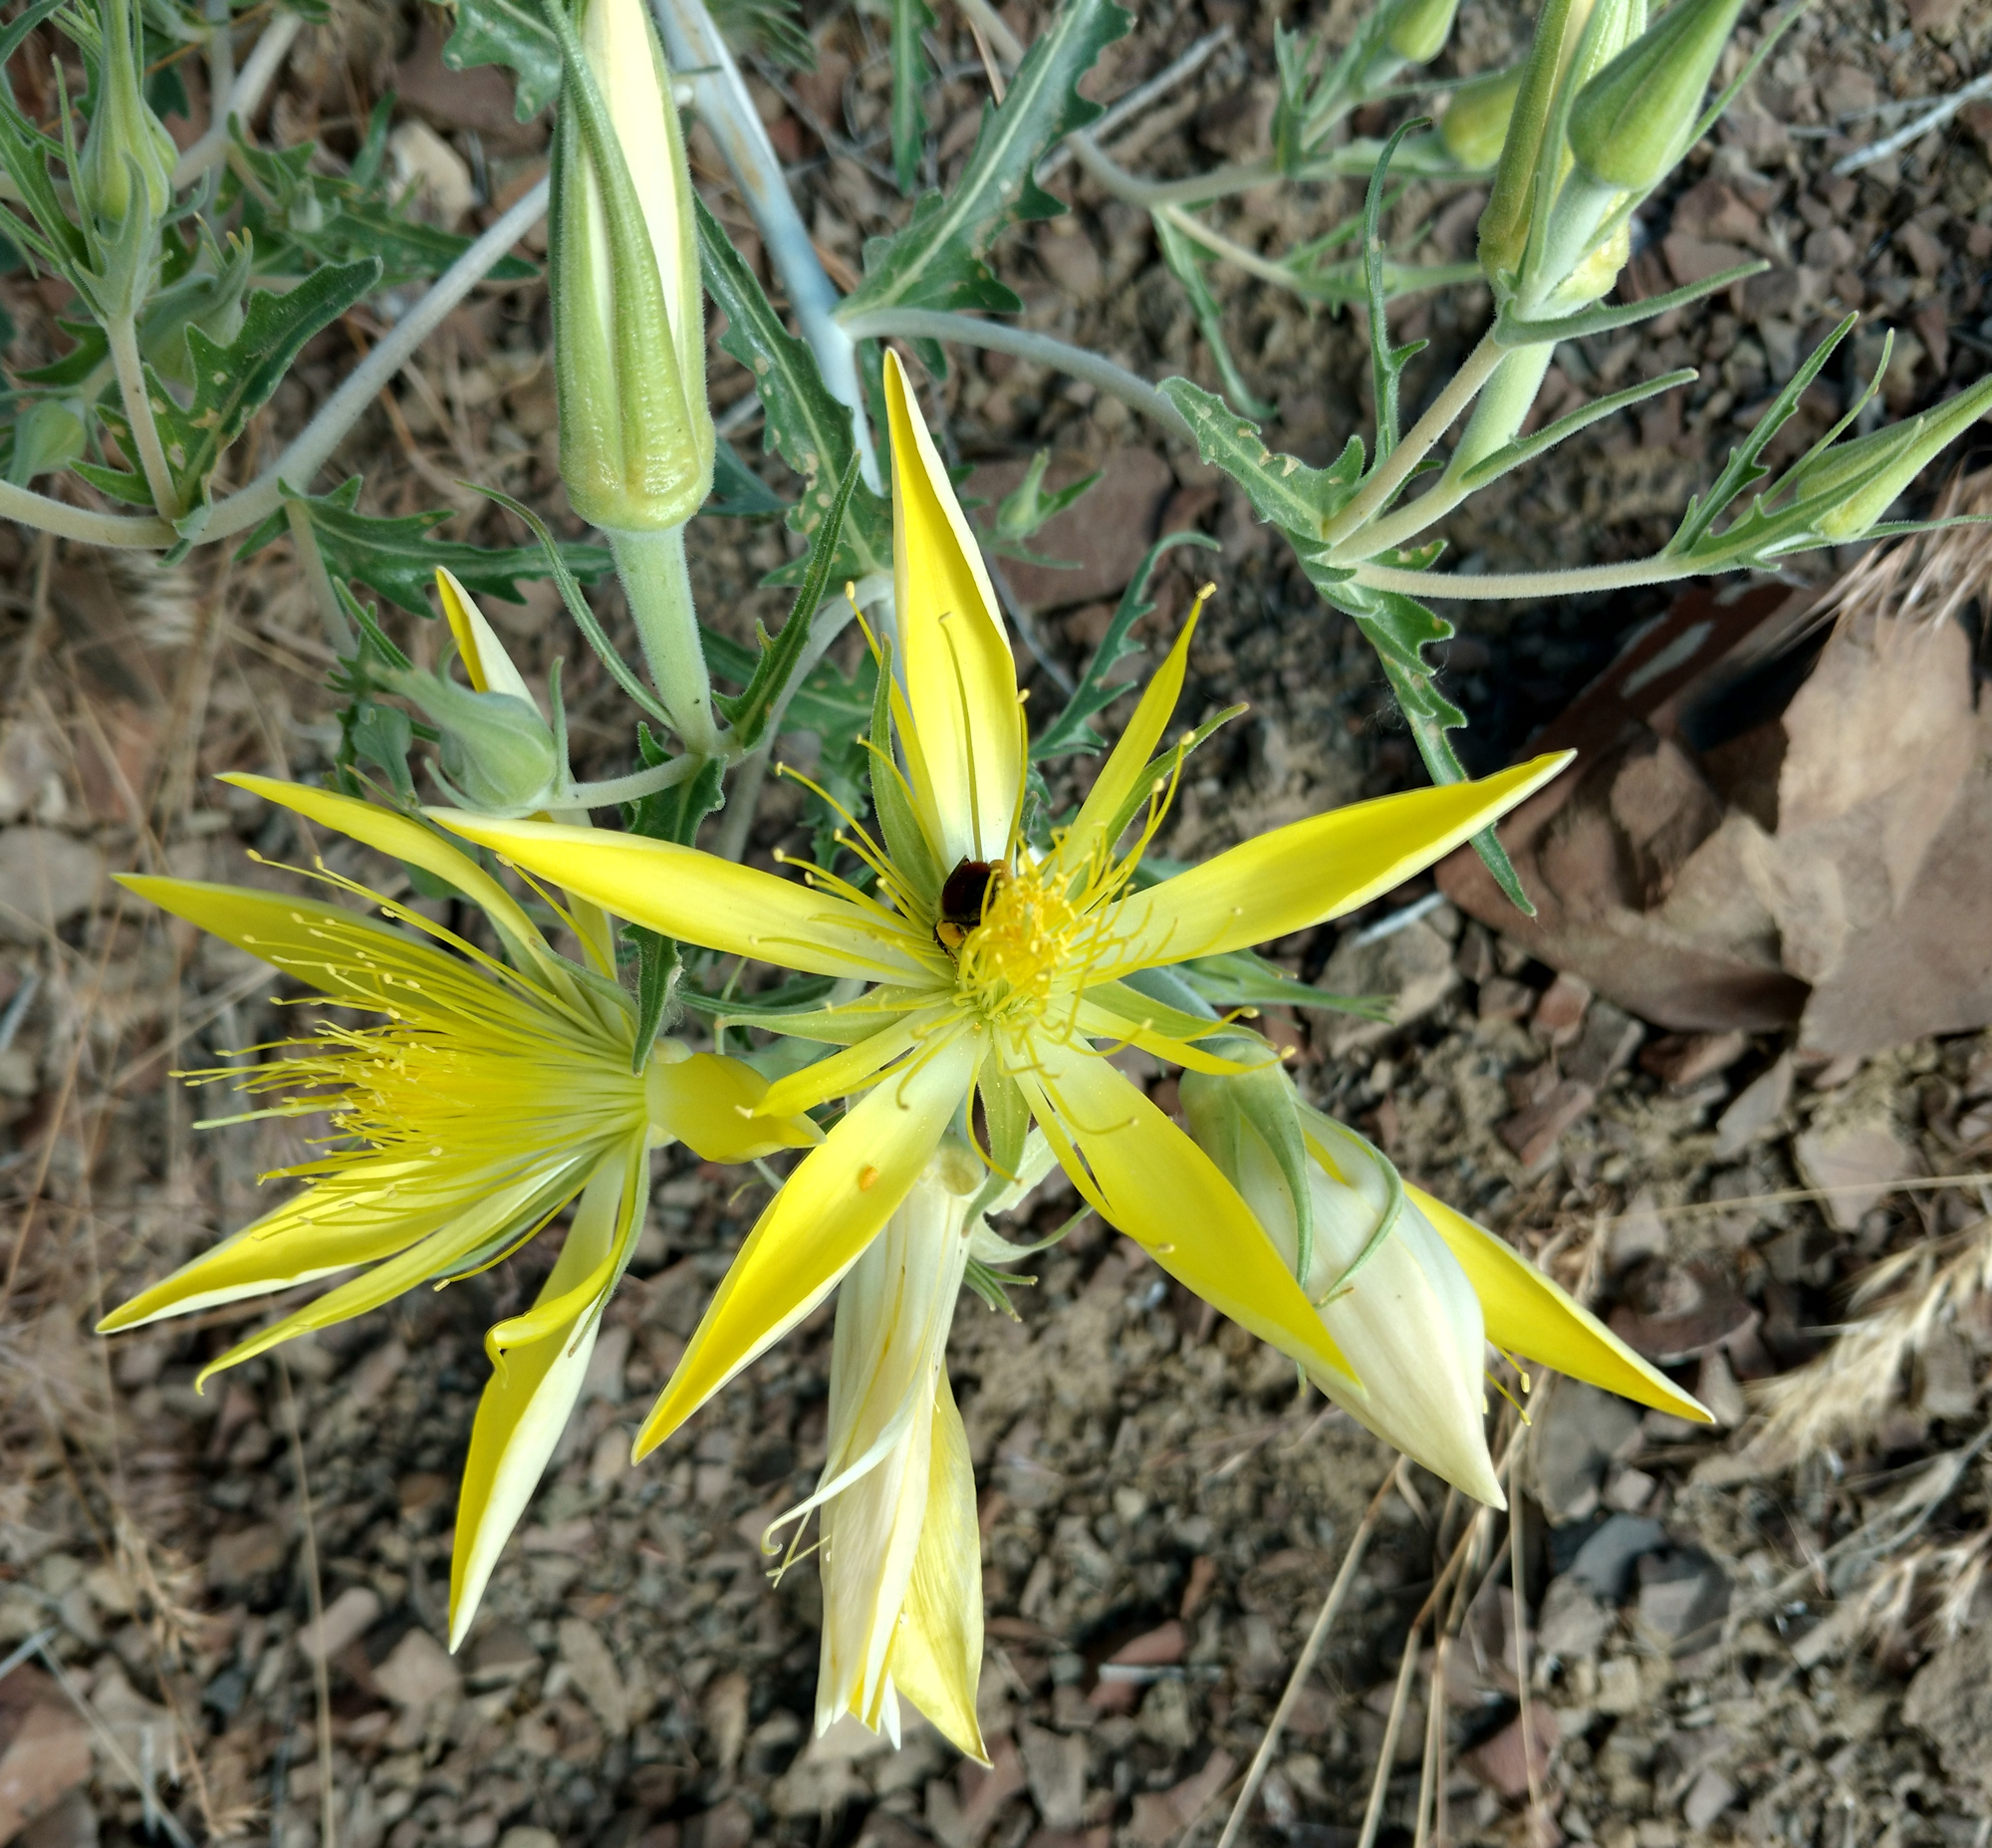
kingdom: Plantae
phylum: Tracheophyta
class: Magnoliopsida
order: Cornales
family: Loasaceae
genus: Mentzelia
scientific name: Mentzelia laevicaulis
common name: Smooth-stem blazingstar
